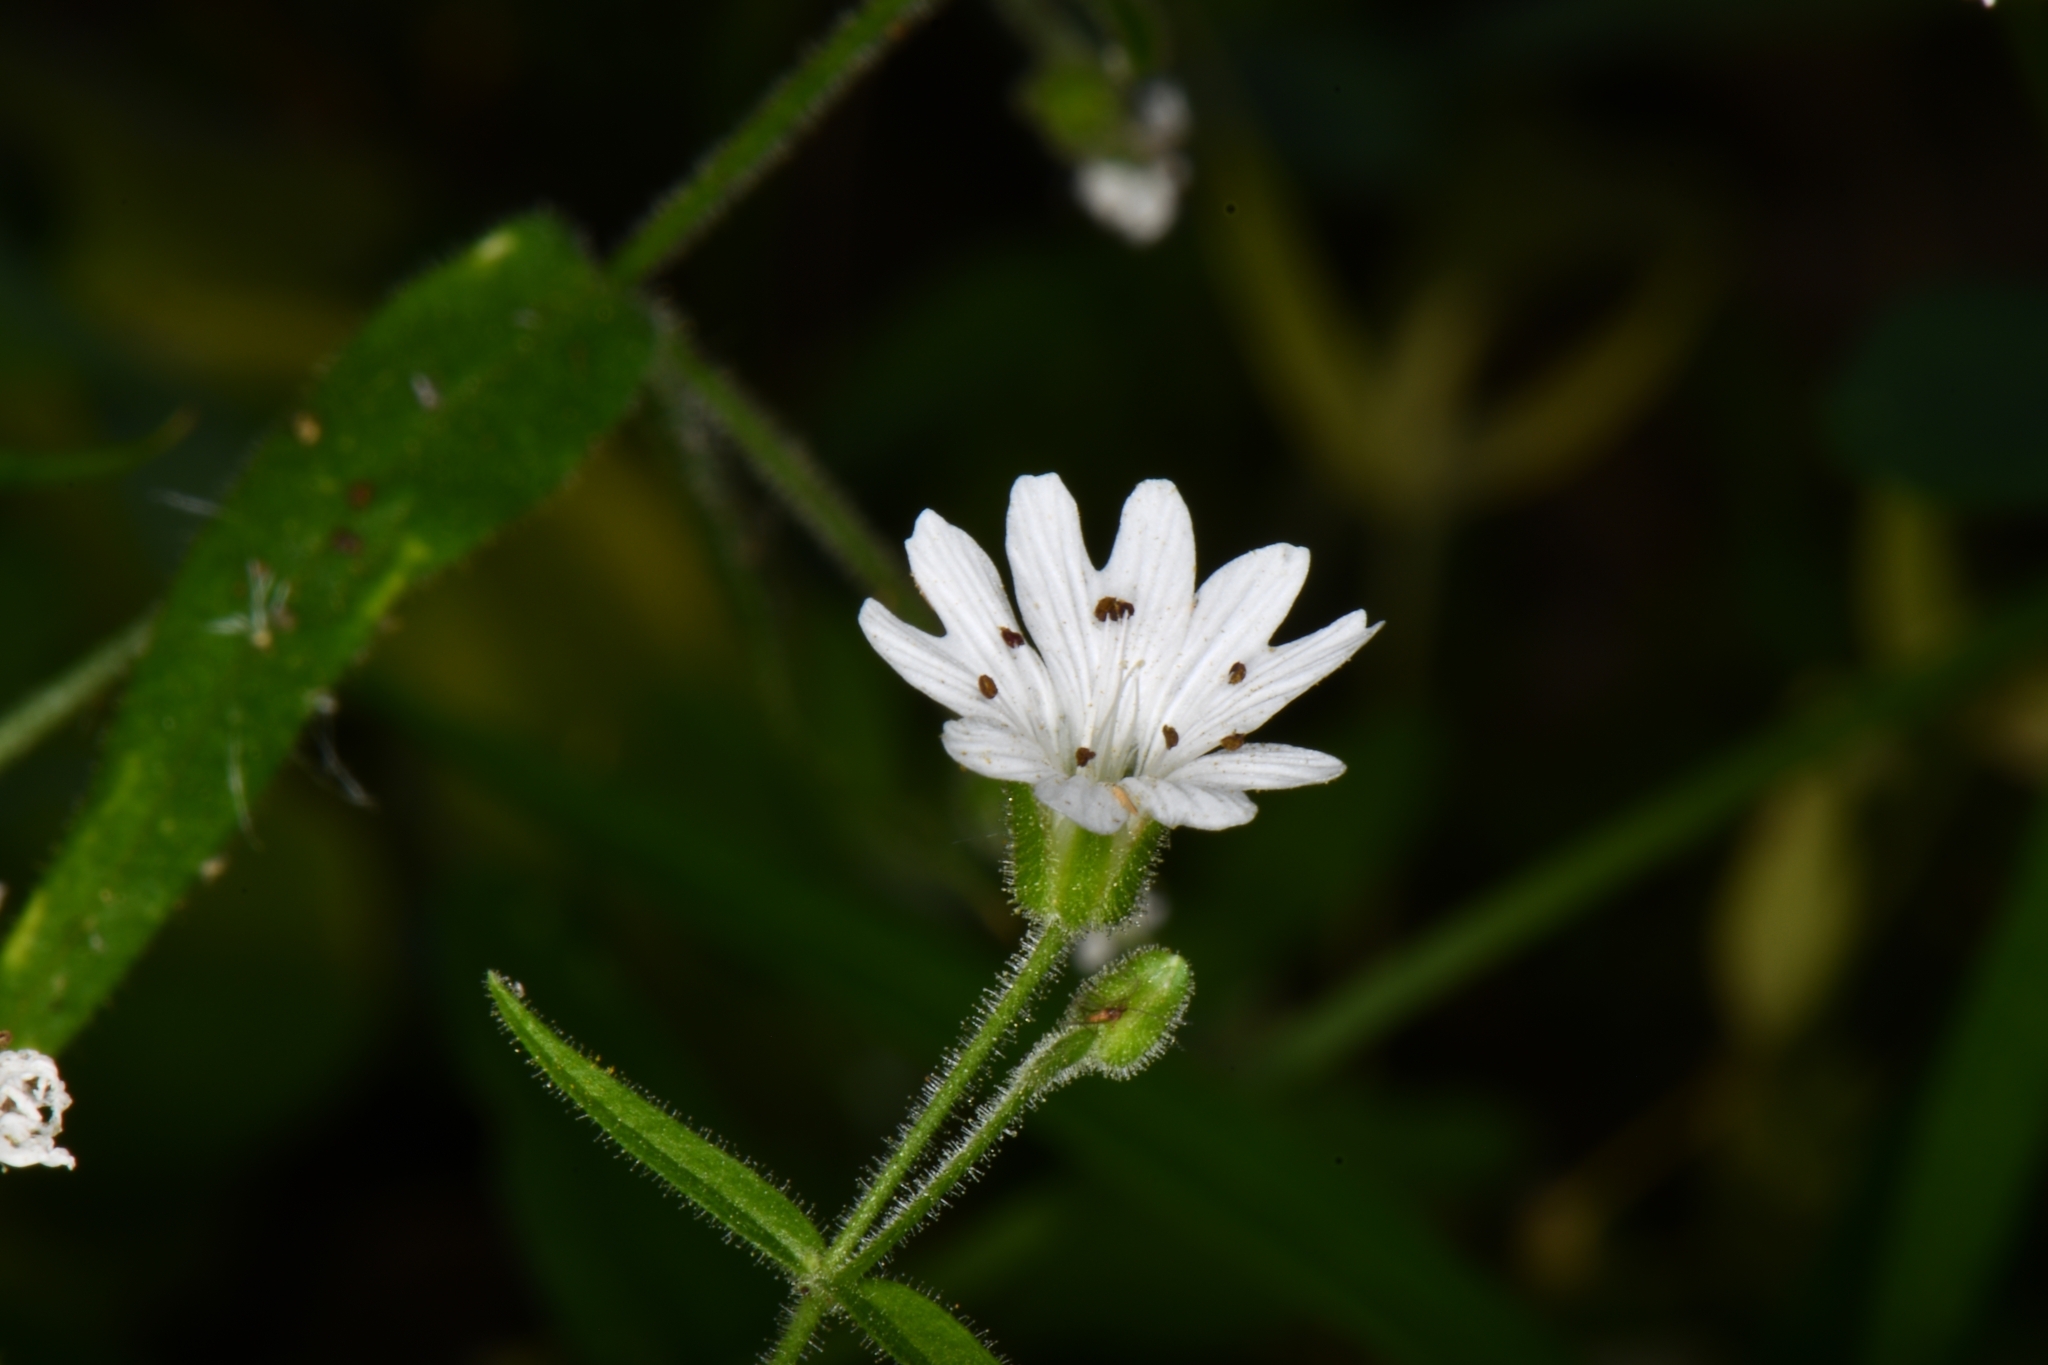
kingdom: Plantae
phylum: Tracheophyta
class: Magnoliopsida
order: Caryophyllales
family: Caryophyllaceae
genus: Schizotechium
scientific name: Schizotechium jamesianum
